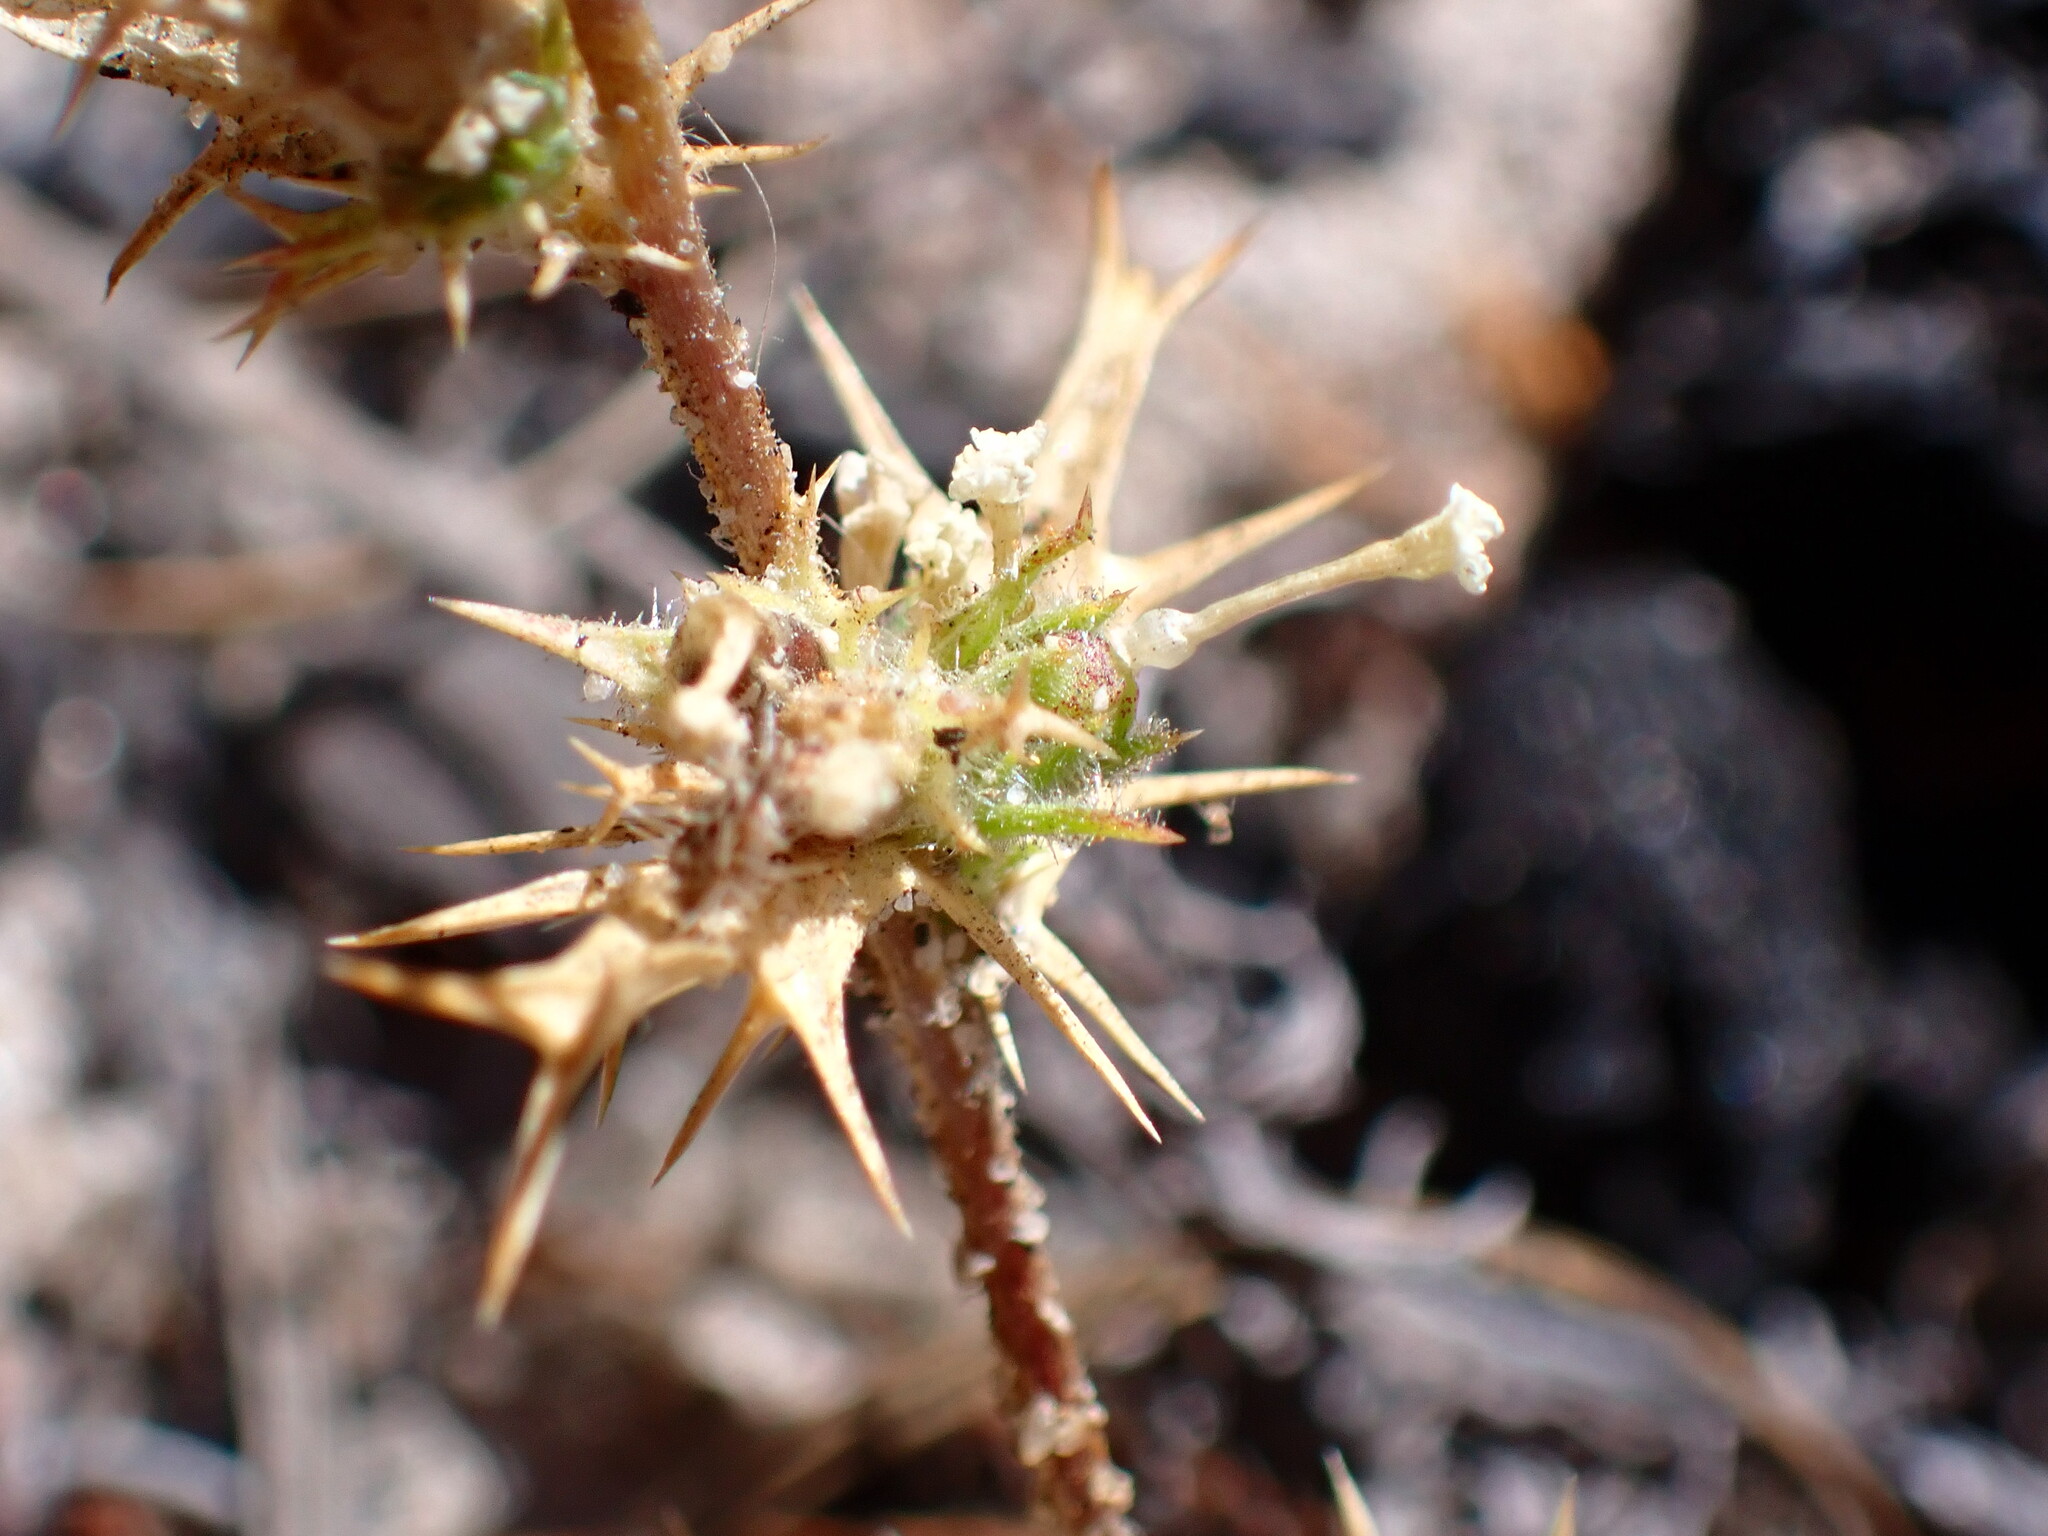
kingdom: Plantae
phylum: Tracheophyta
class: Magnoliopsida
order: Ericales
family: Polemoniaceae
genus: Navarretia
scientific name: Navarretia hamata
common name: Hooked navarretia
